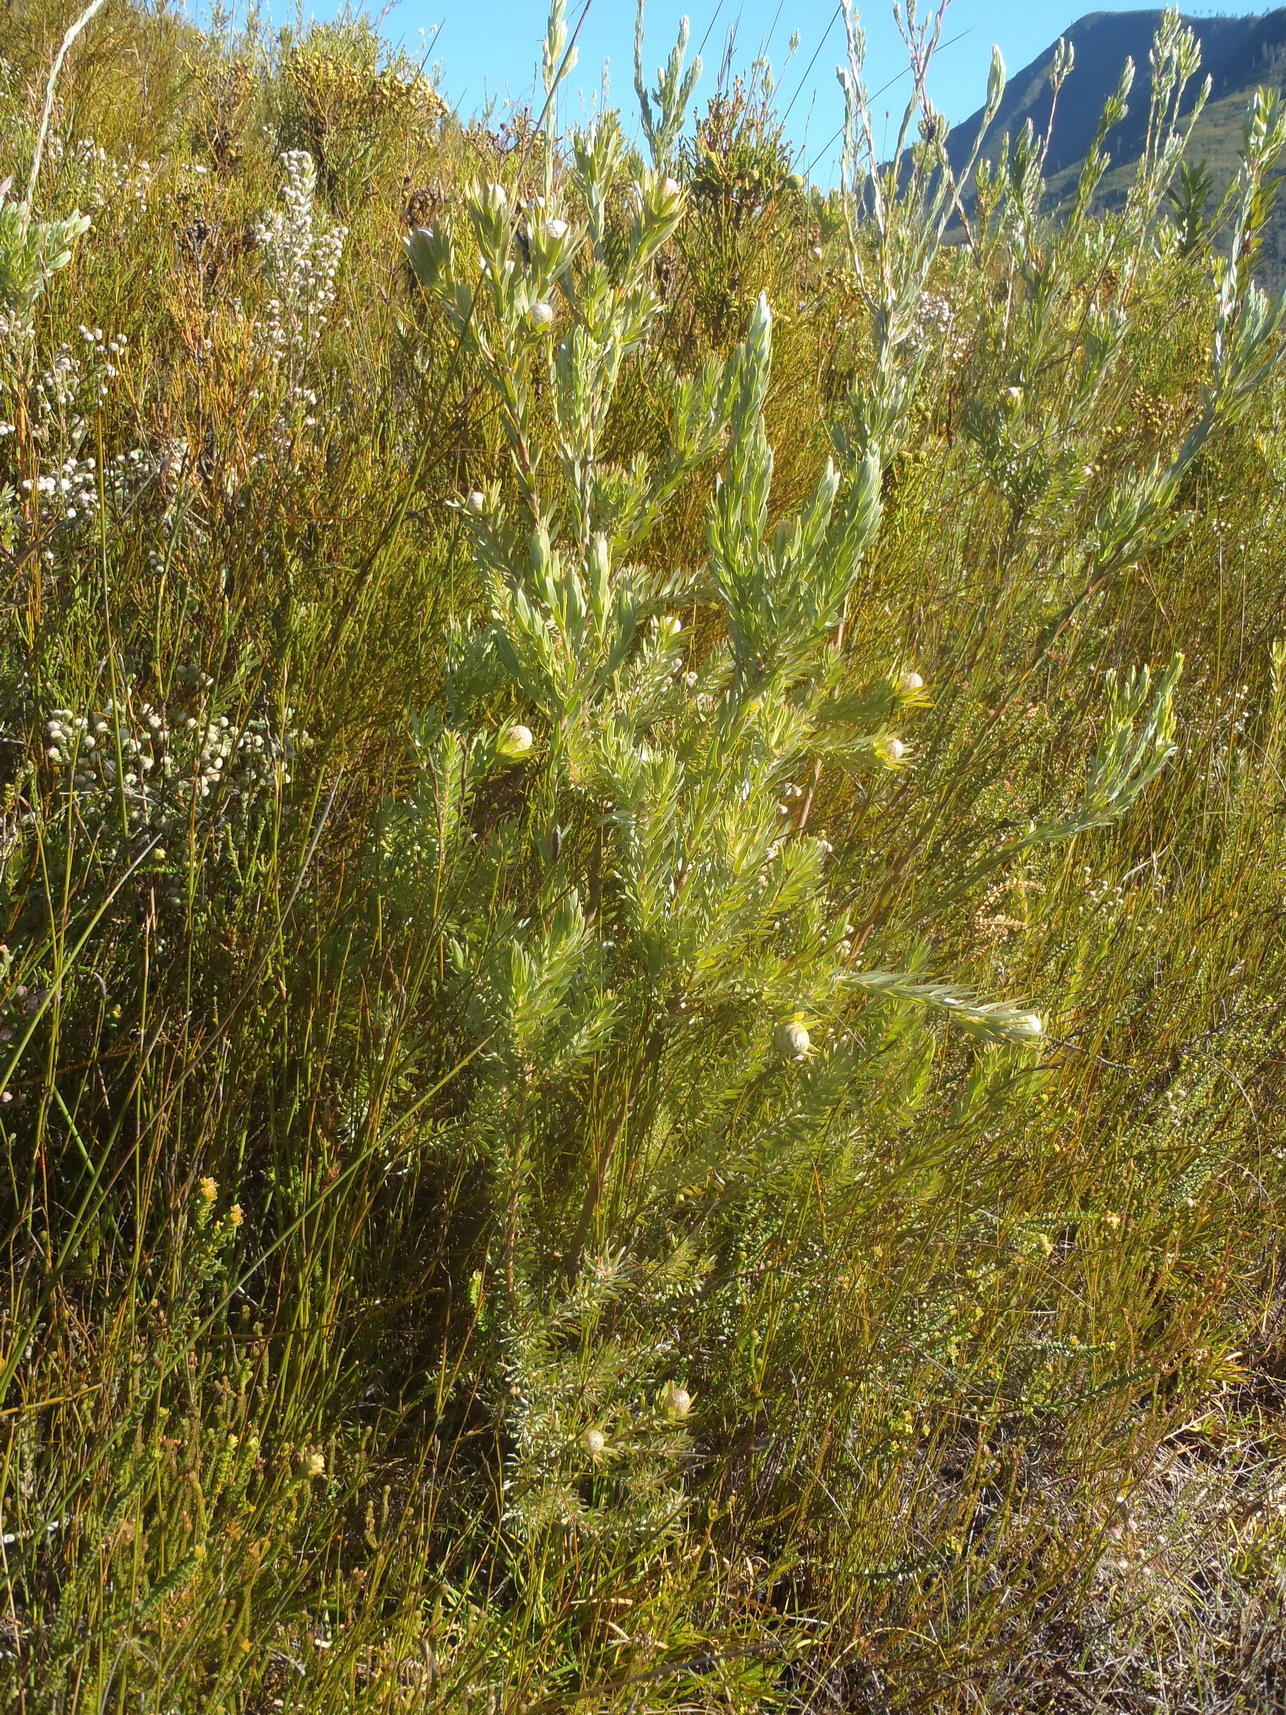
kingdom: Plantae
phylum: Tracheophyta
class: Magnoliopsida
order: Proteales
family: Proteaceae
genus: Leucadendron
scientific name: Leucadendron uliginosum
